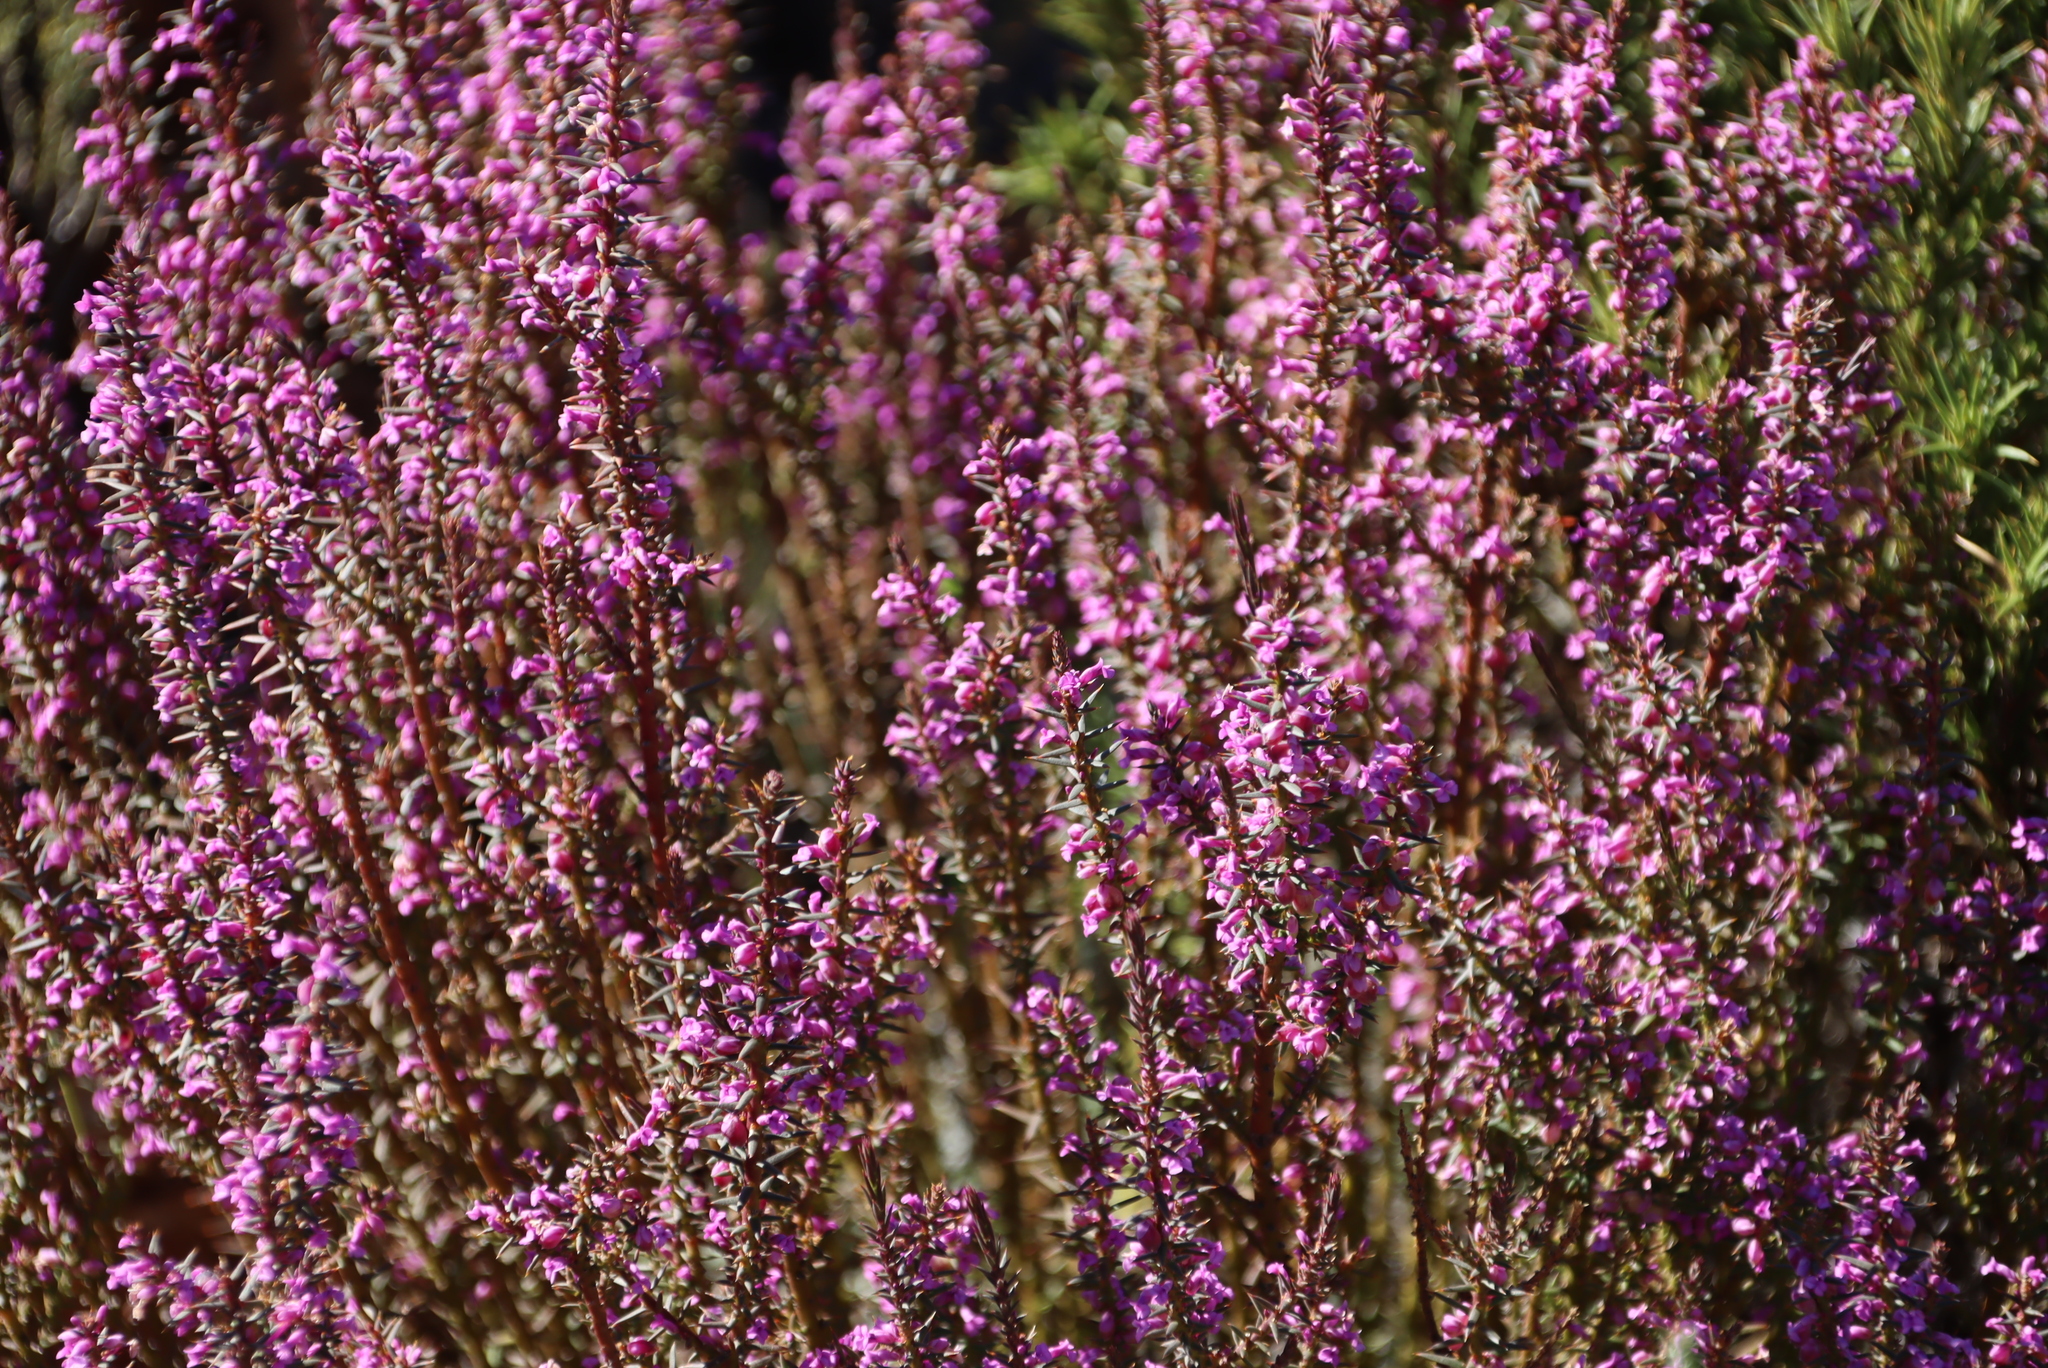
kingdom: Plantae
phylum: Tracheophyta
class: Magnoliopsida
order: Fabales
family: Polygalaceae
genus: Muraltia
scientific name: Muraltia juniperifolia
